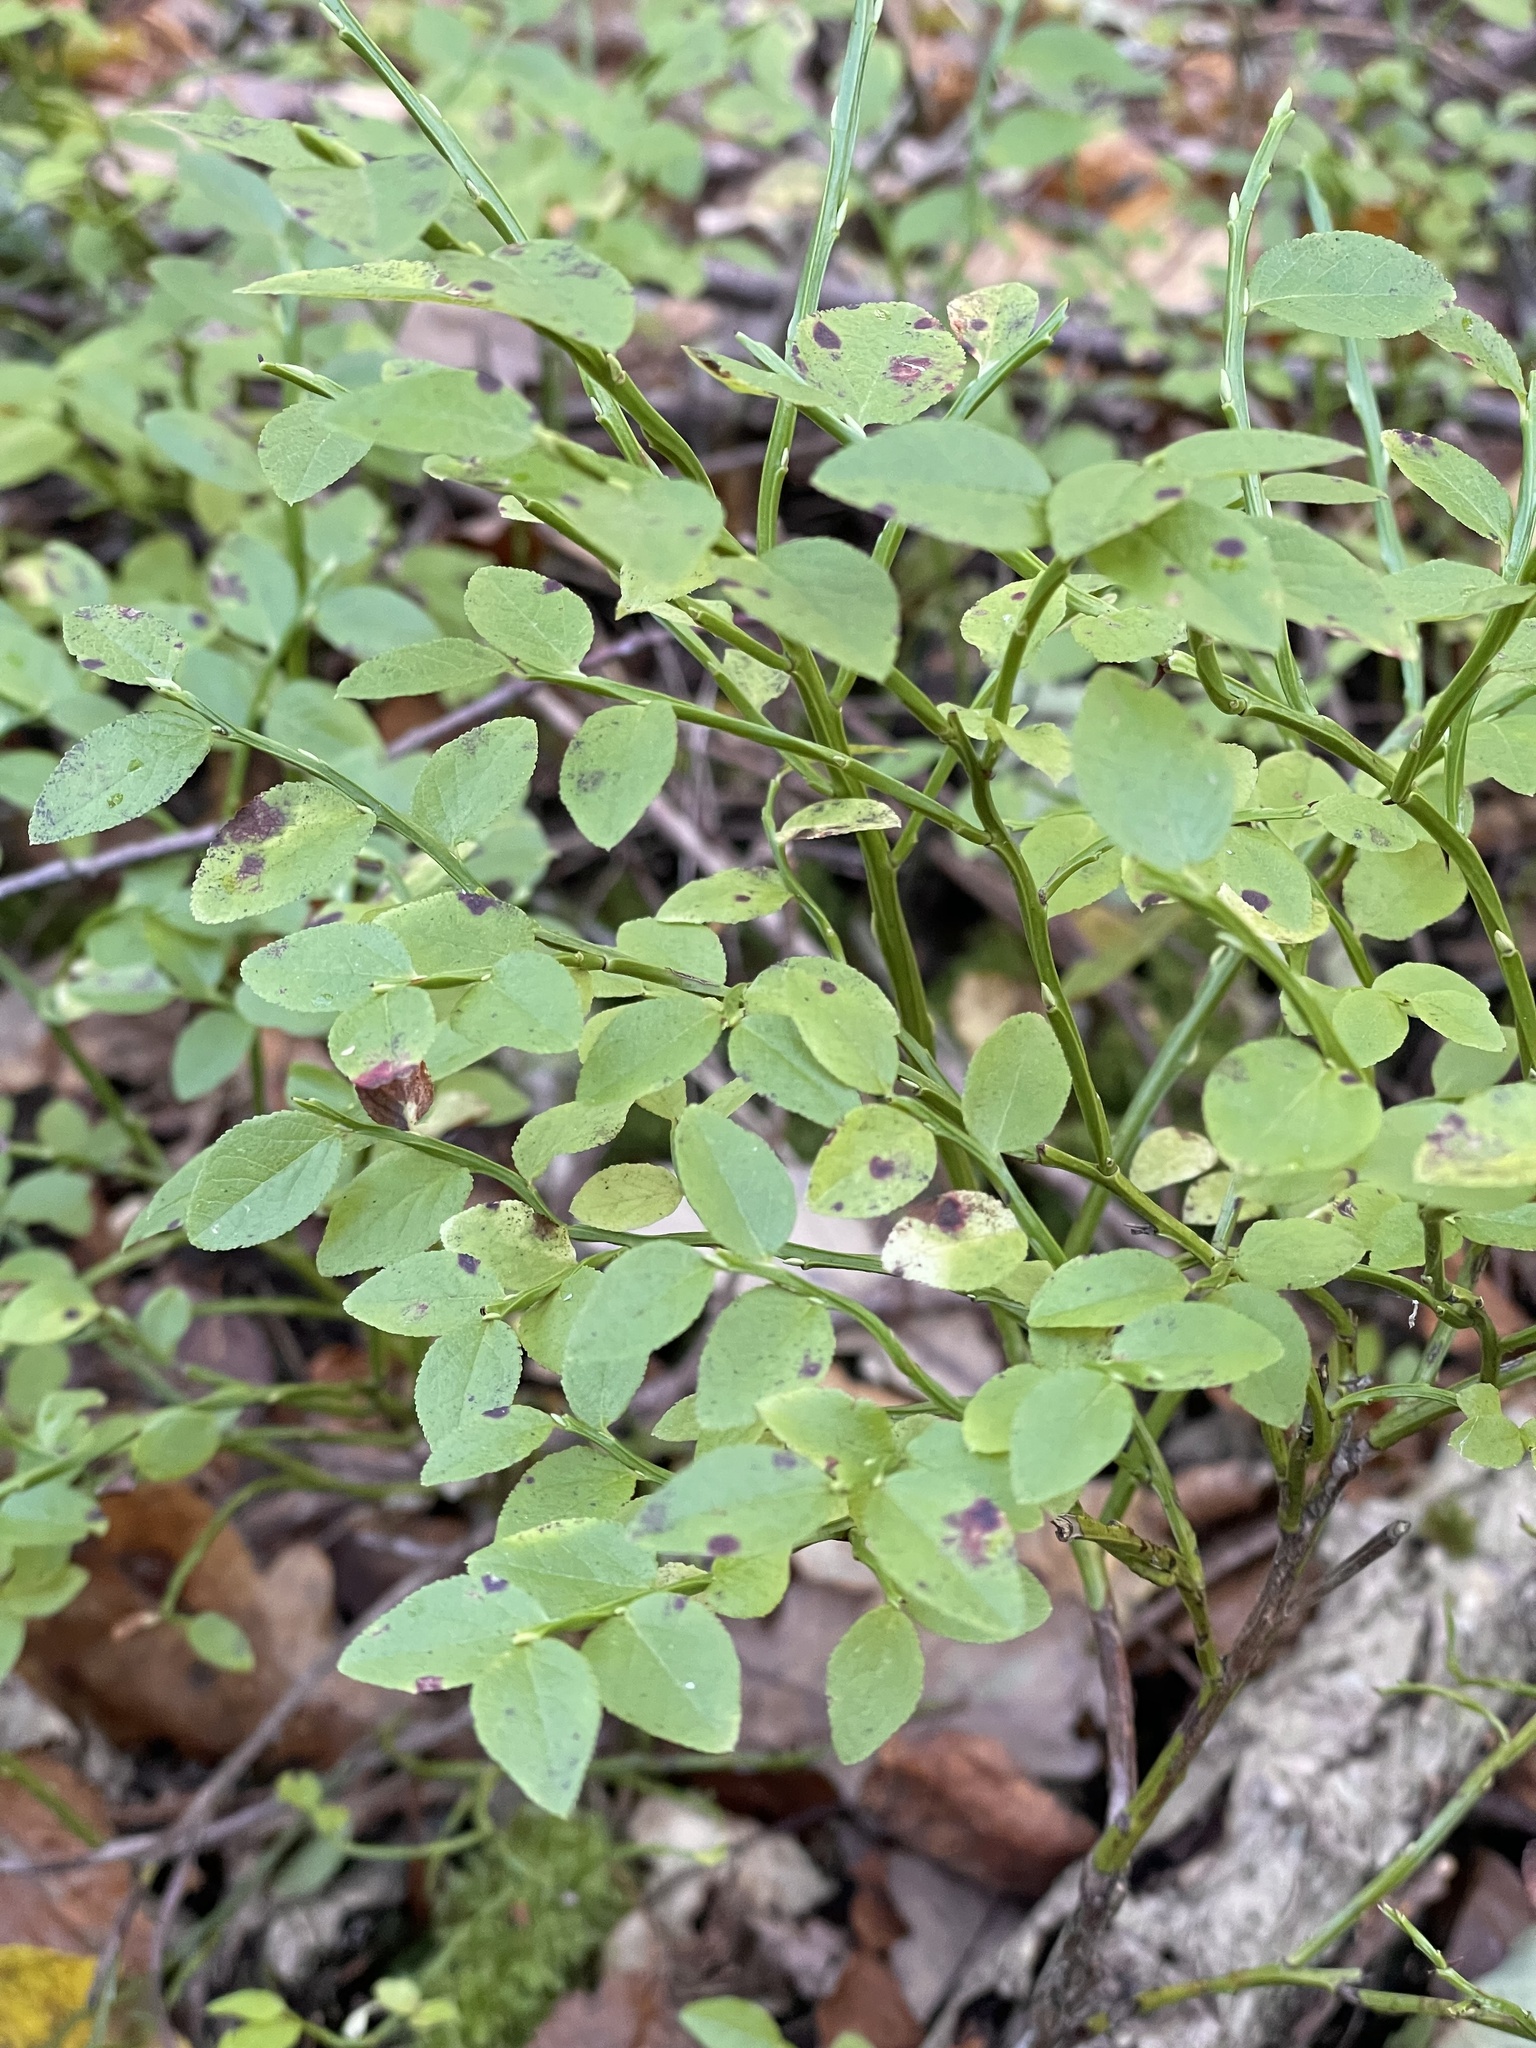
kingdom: Plantae
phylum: Tracheophyta
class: Magnoliopsida
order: Ericales
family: Ericaceae
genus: Vaccinium
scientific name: Vaccinium myrtillus
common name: Bilberry
